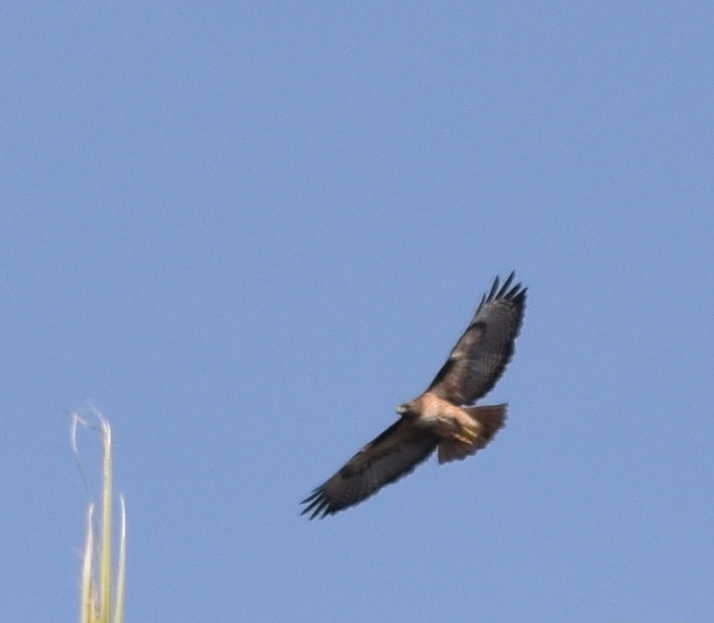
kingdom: Animalia
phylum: Chordata
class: Aves
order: Accipitriformes
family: Accipitridae
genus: Buteo
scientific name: Buteo jamaicensis
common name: Red-tailed hawk
